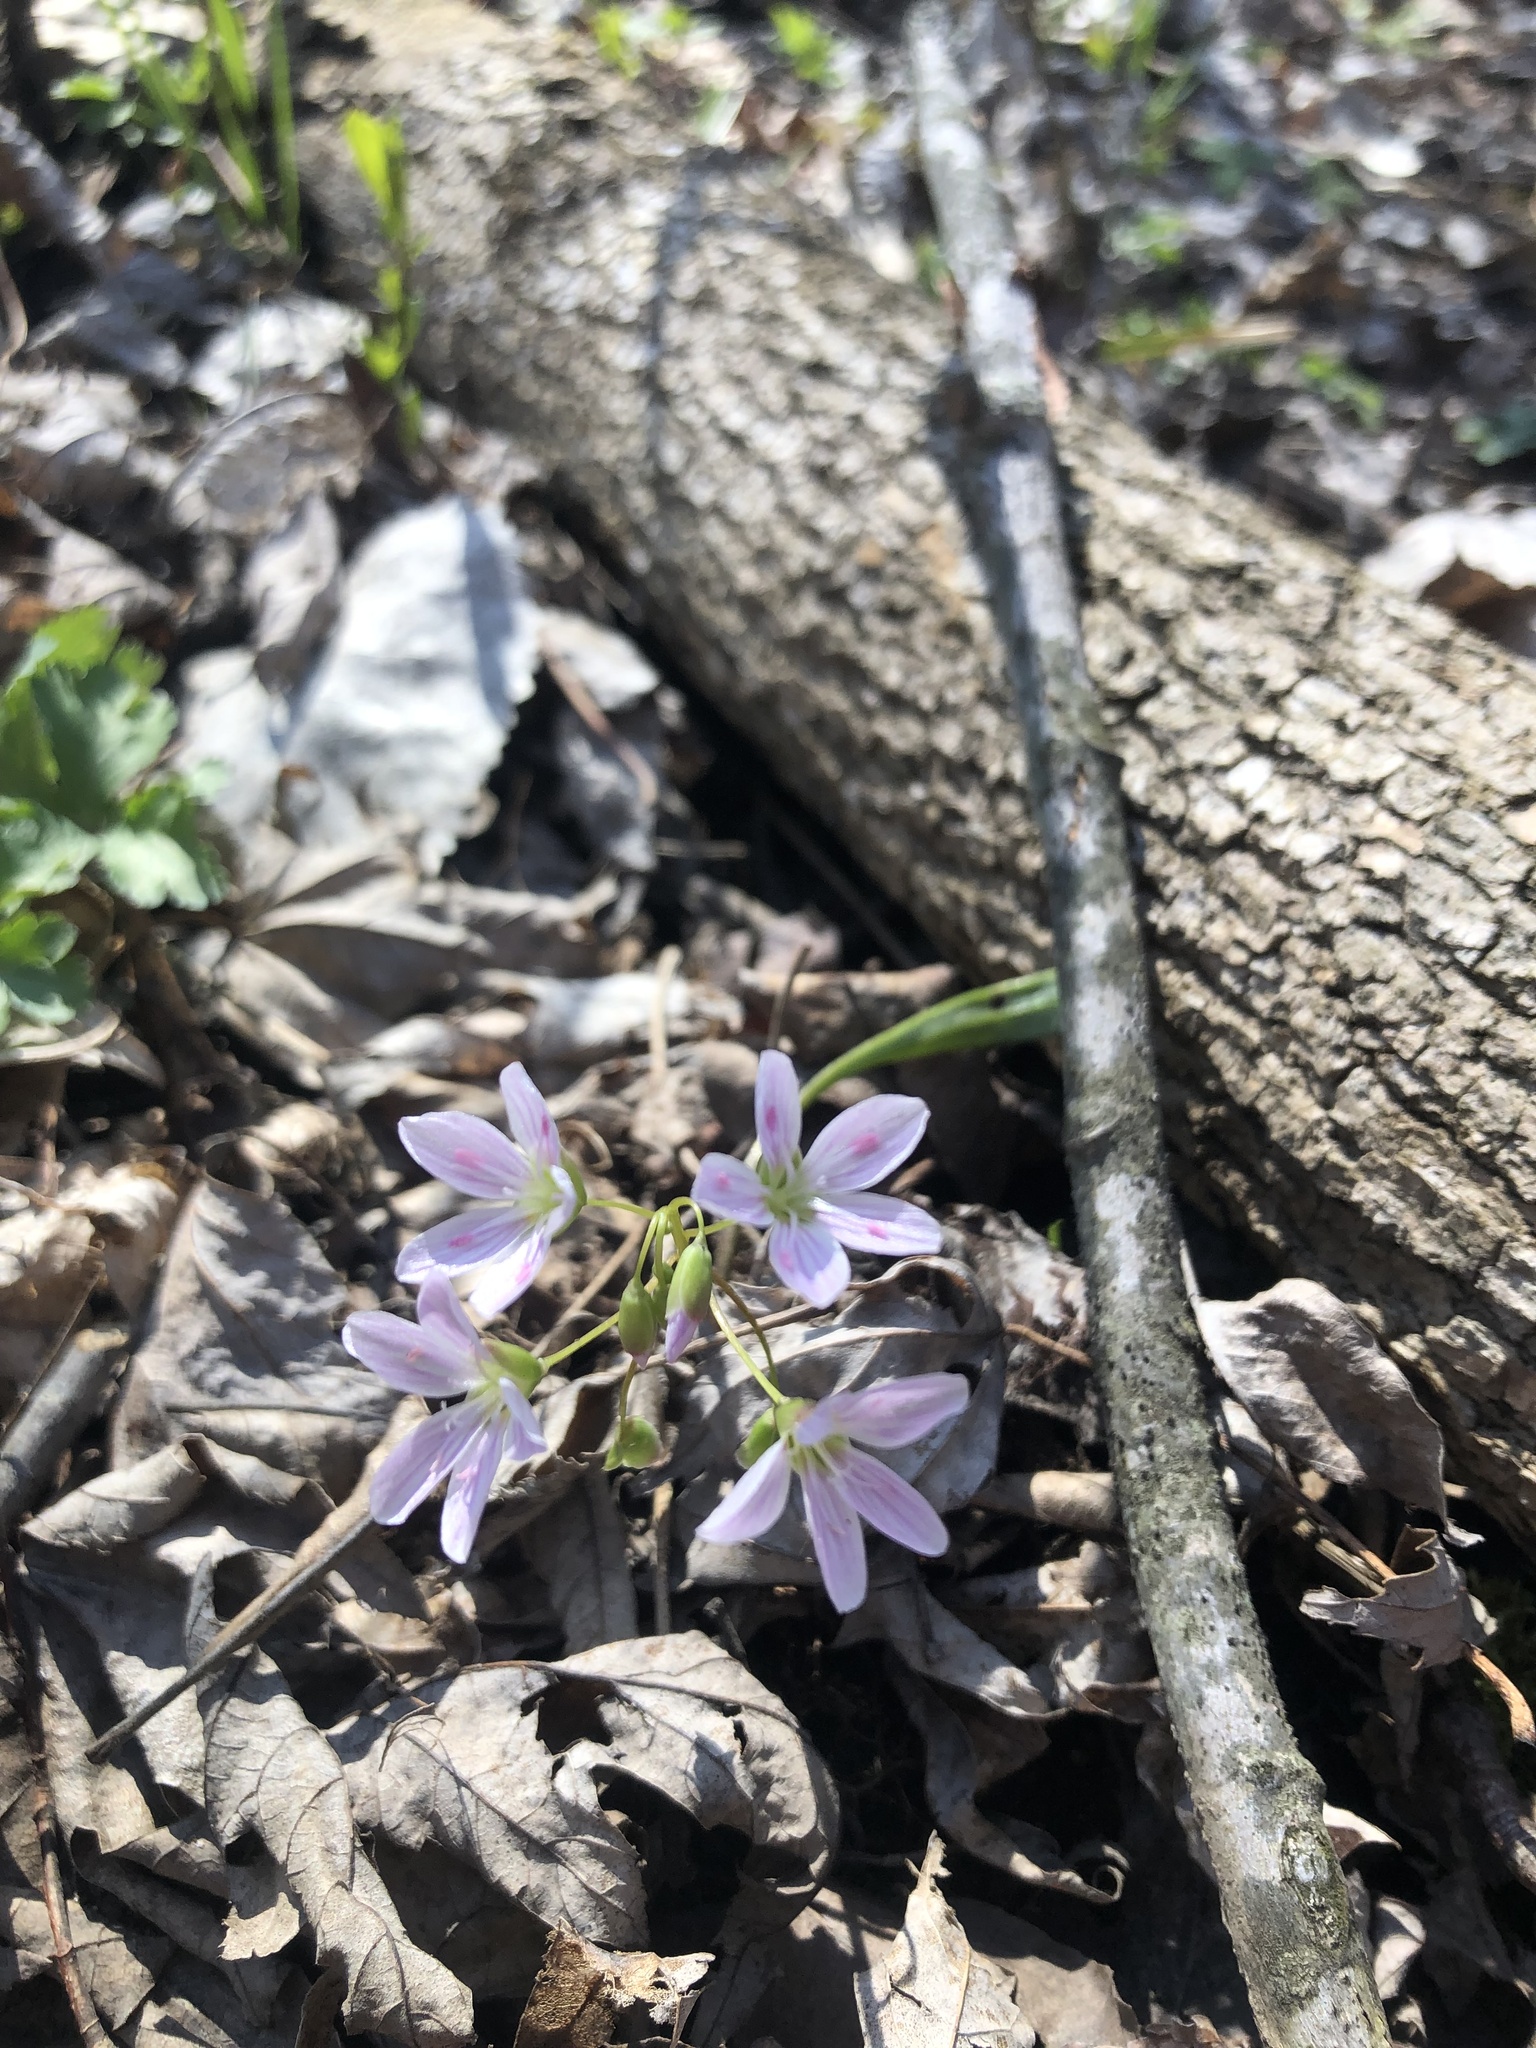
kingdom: Plantae
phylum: Tracheophyta
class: Magnoliopsida
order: Caryophyllales
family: Montiaceae
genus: Claytonia
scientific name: Claytonia virginica
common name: Virginia springbeauty
